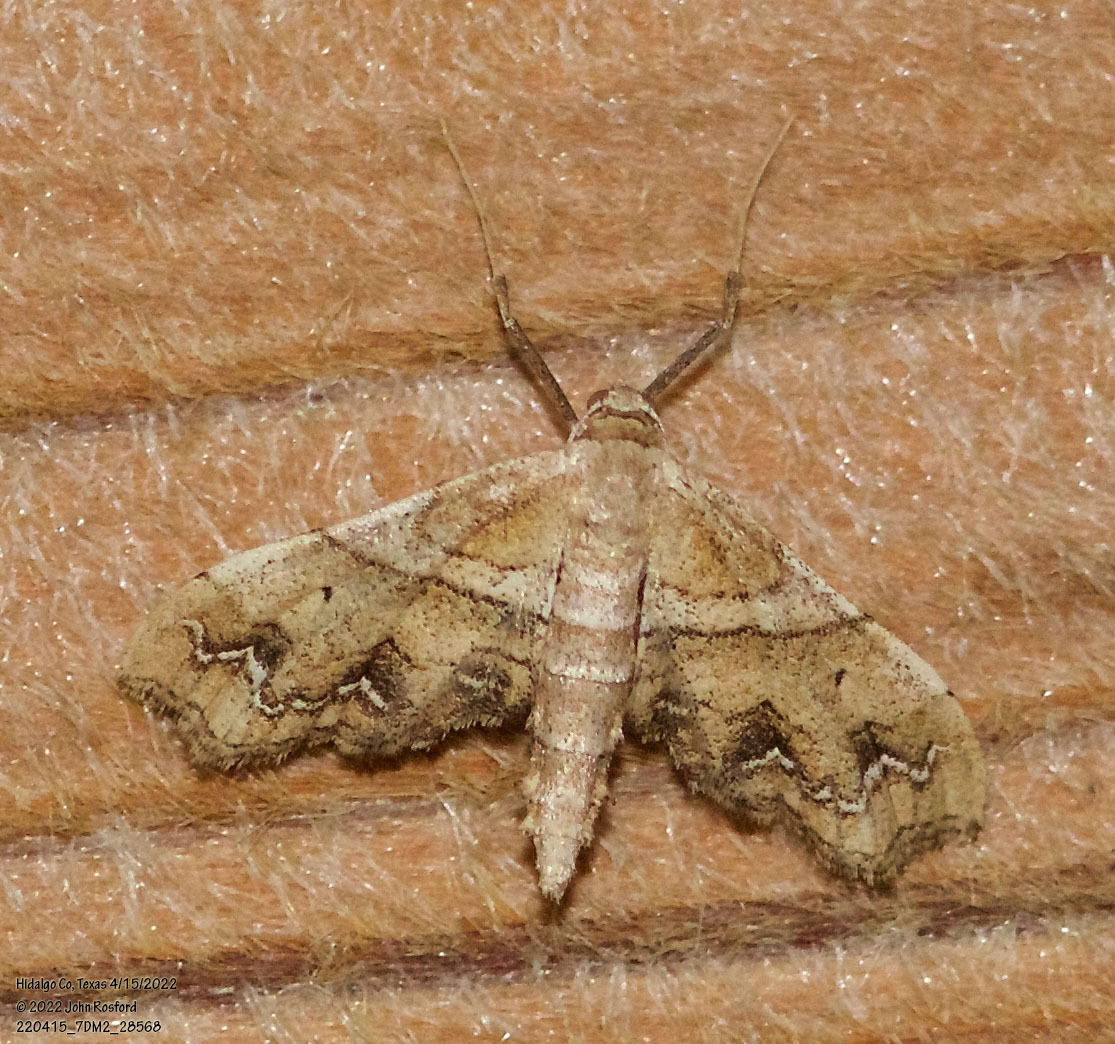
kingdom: Animalia
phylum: Arthropoda
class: Insecta
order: Lepidoptera
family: Geometridae
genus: Odontoptila
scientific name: Odontoptila obrimo
